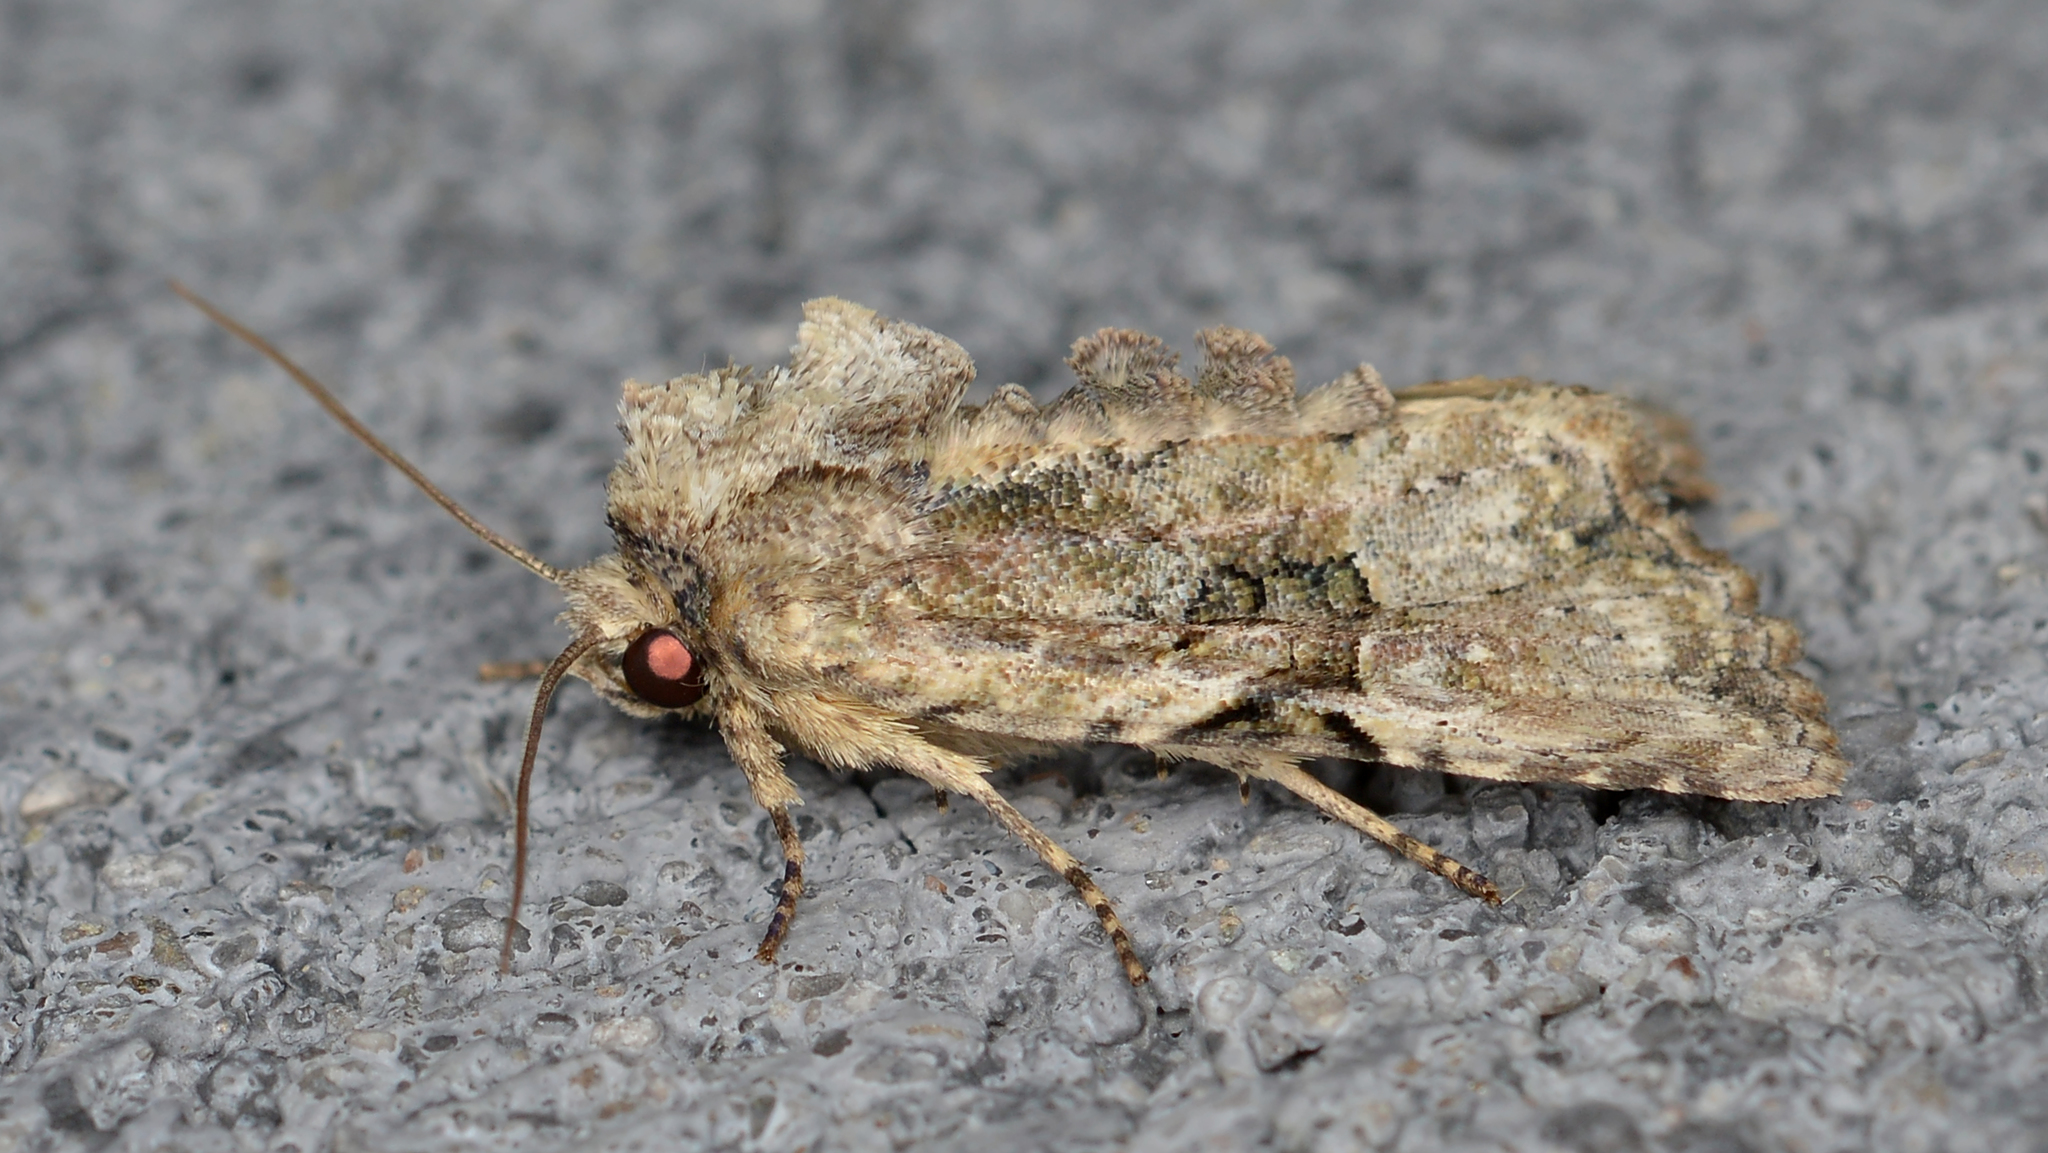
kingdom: Animalia
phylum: Arthropoda
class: Insecta
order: Lepidoptera
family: Noctuidae
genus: Oligia
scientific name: Oligia modica
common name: Black-banded brocade
